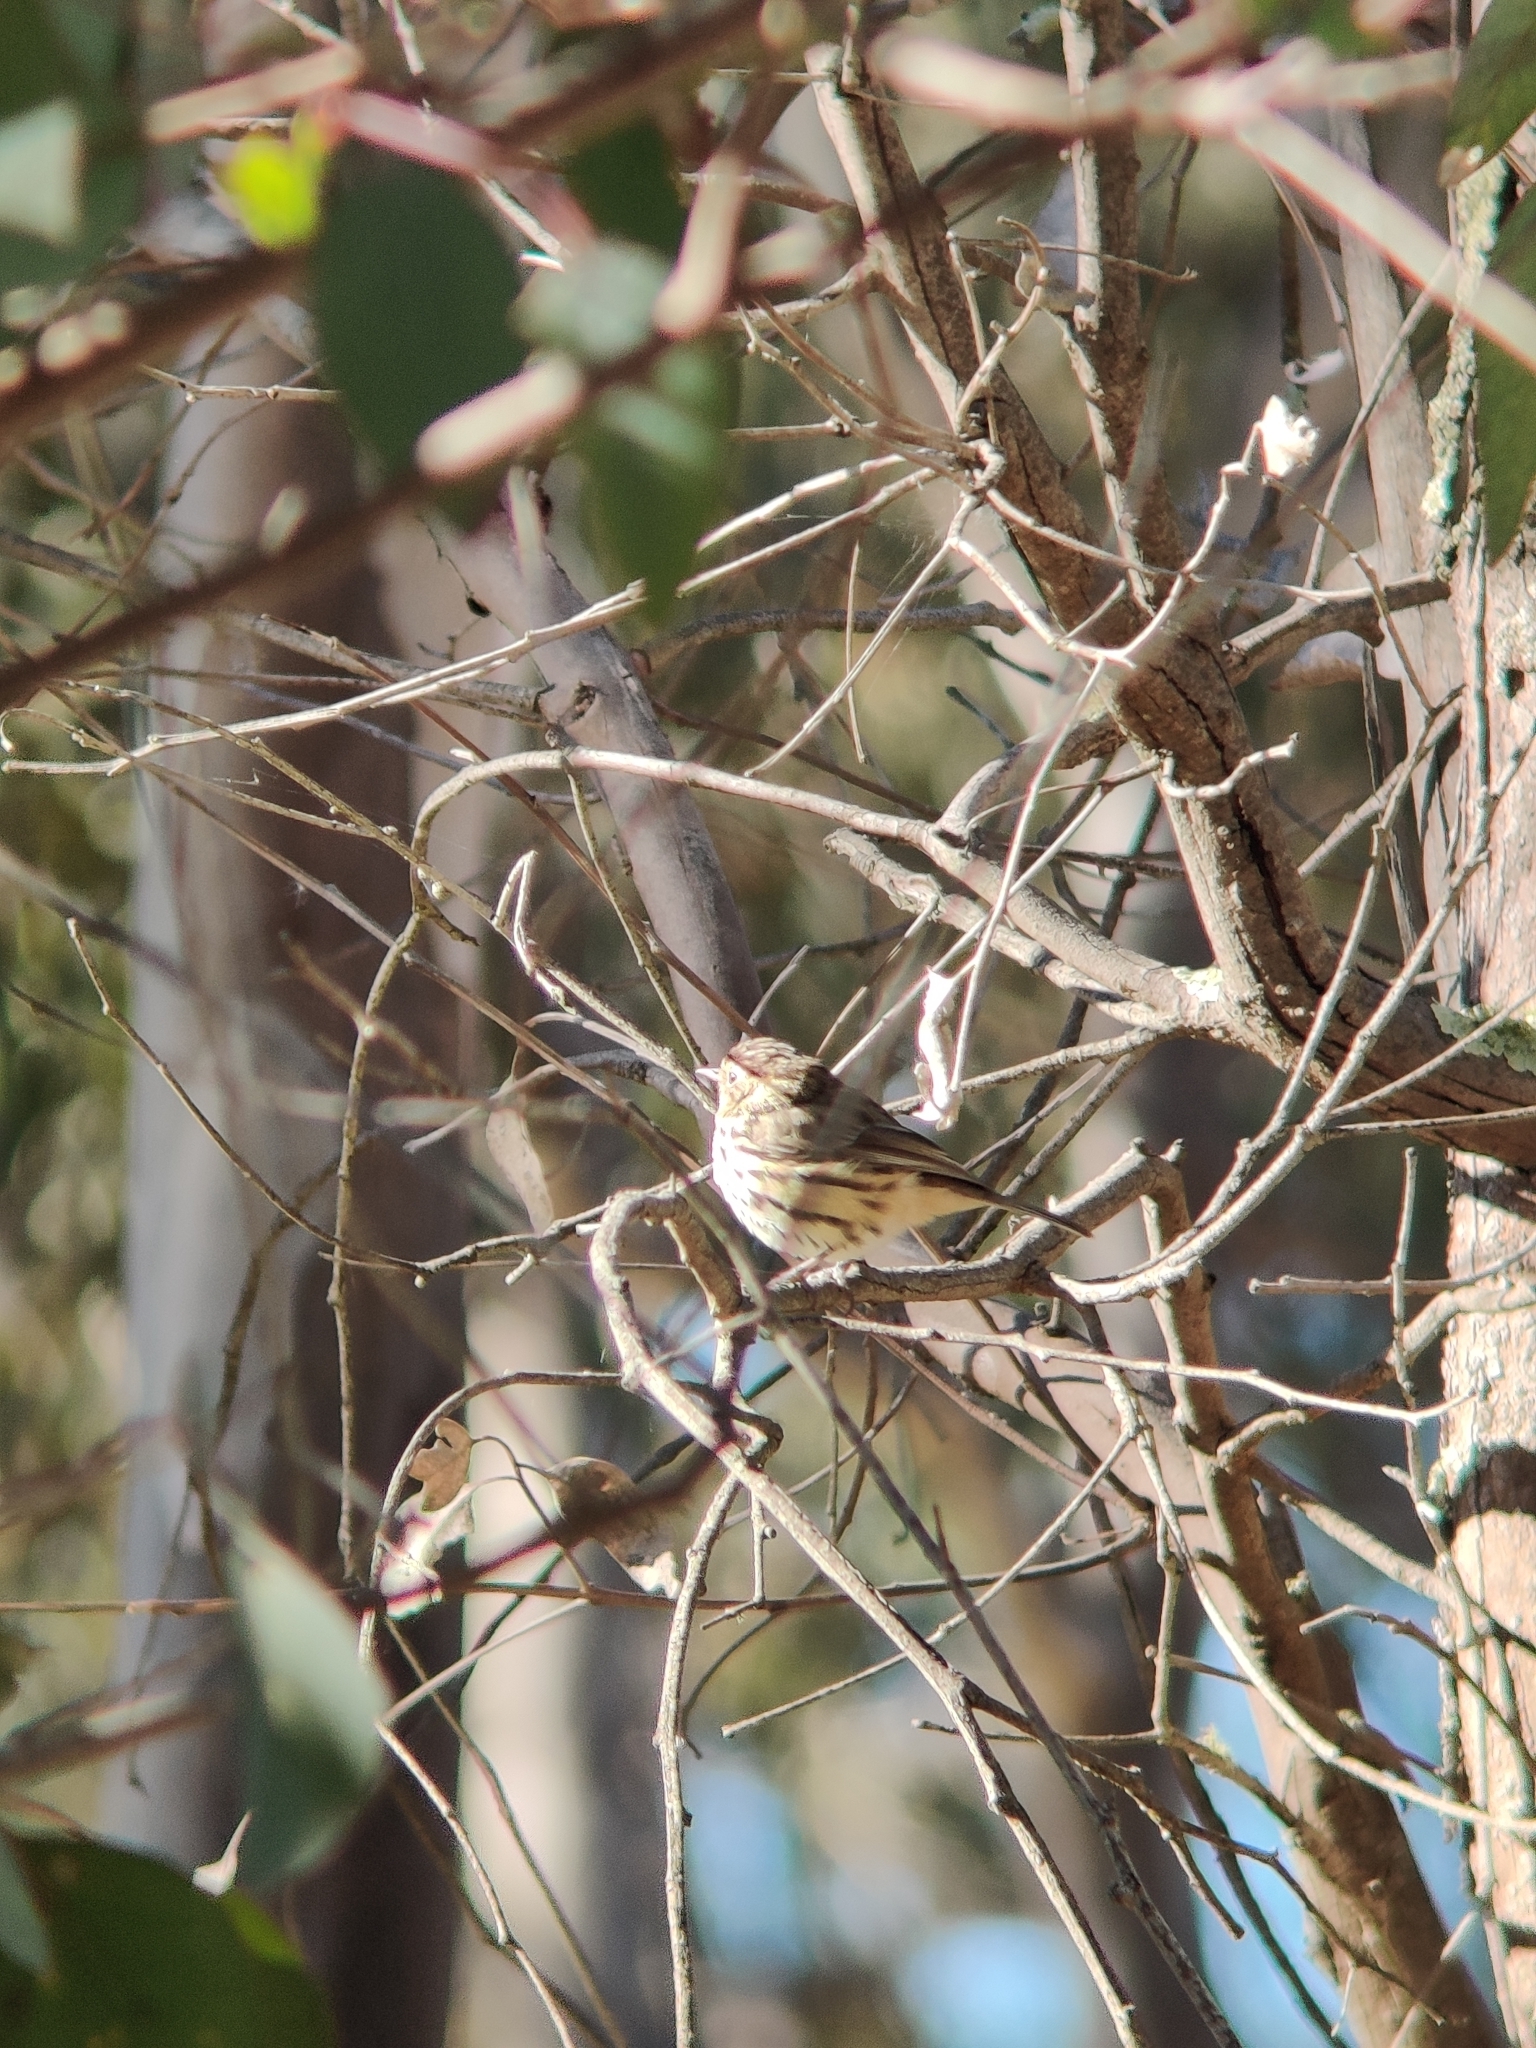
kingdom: Animalia
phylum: Chordata
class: Aves
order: Passeriformes
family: Acanthizidae
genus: Pyrrholaemus
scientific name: Pyrrholaemus sagittatus
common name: Speckled warbler
